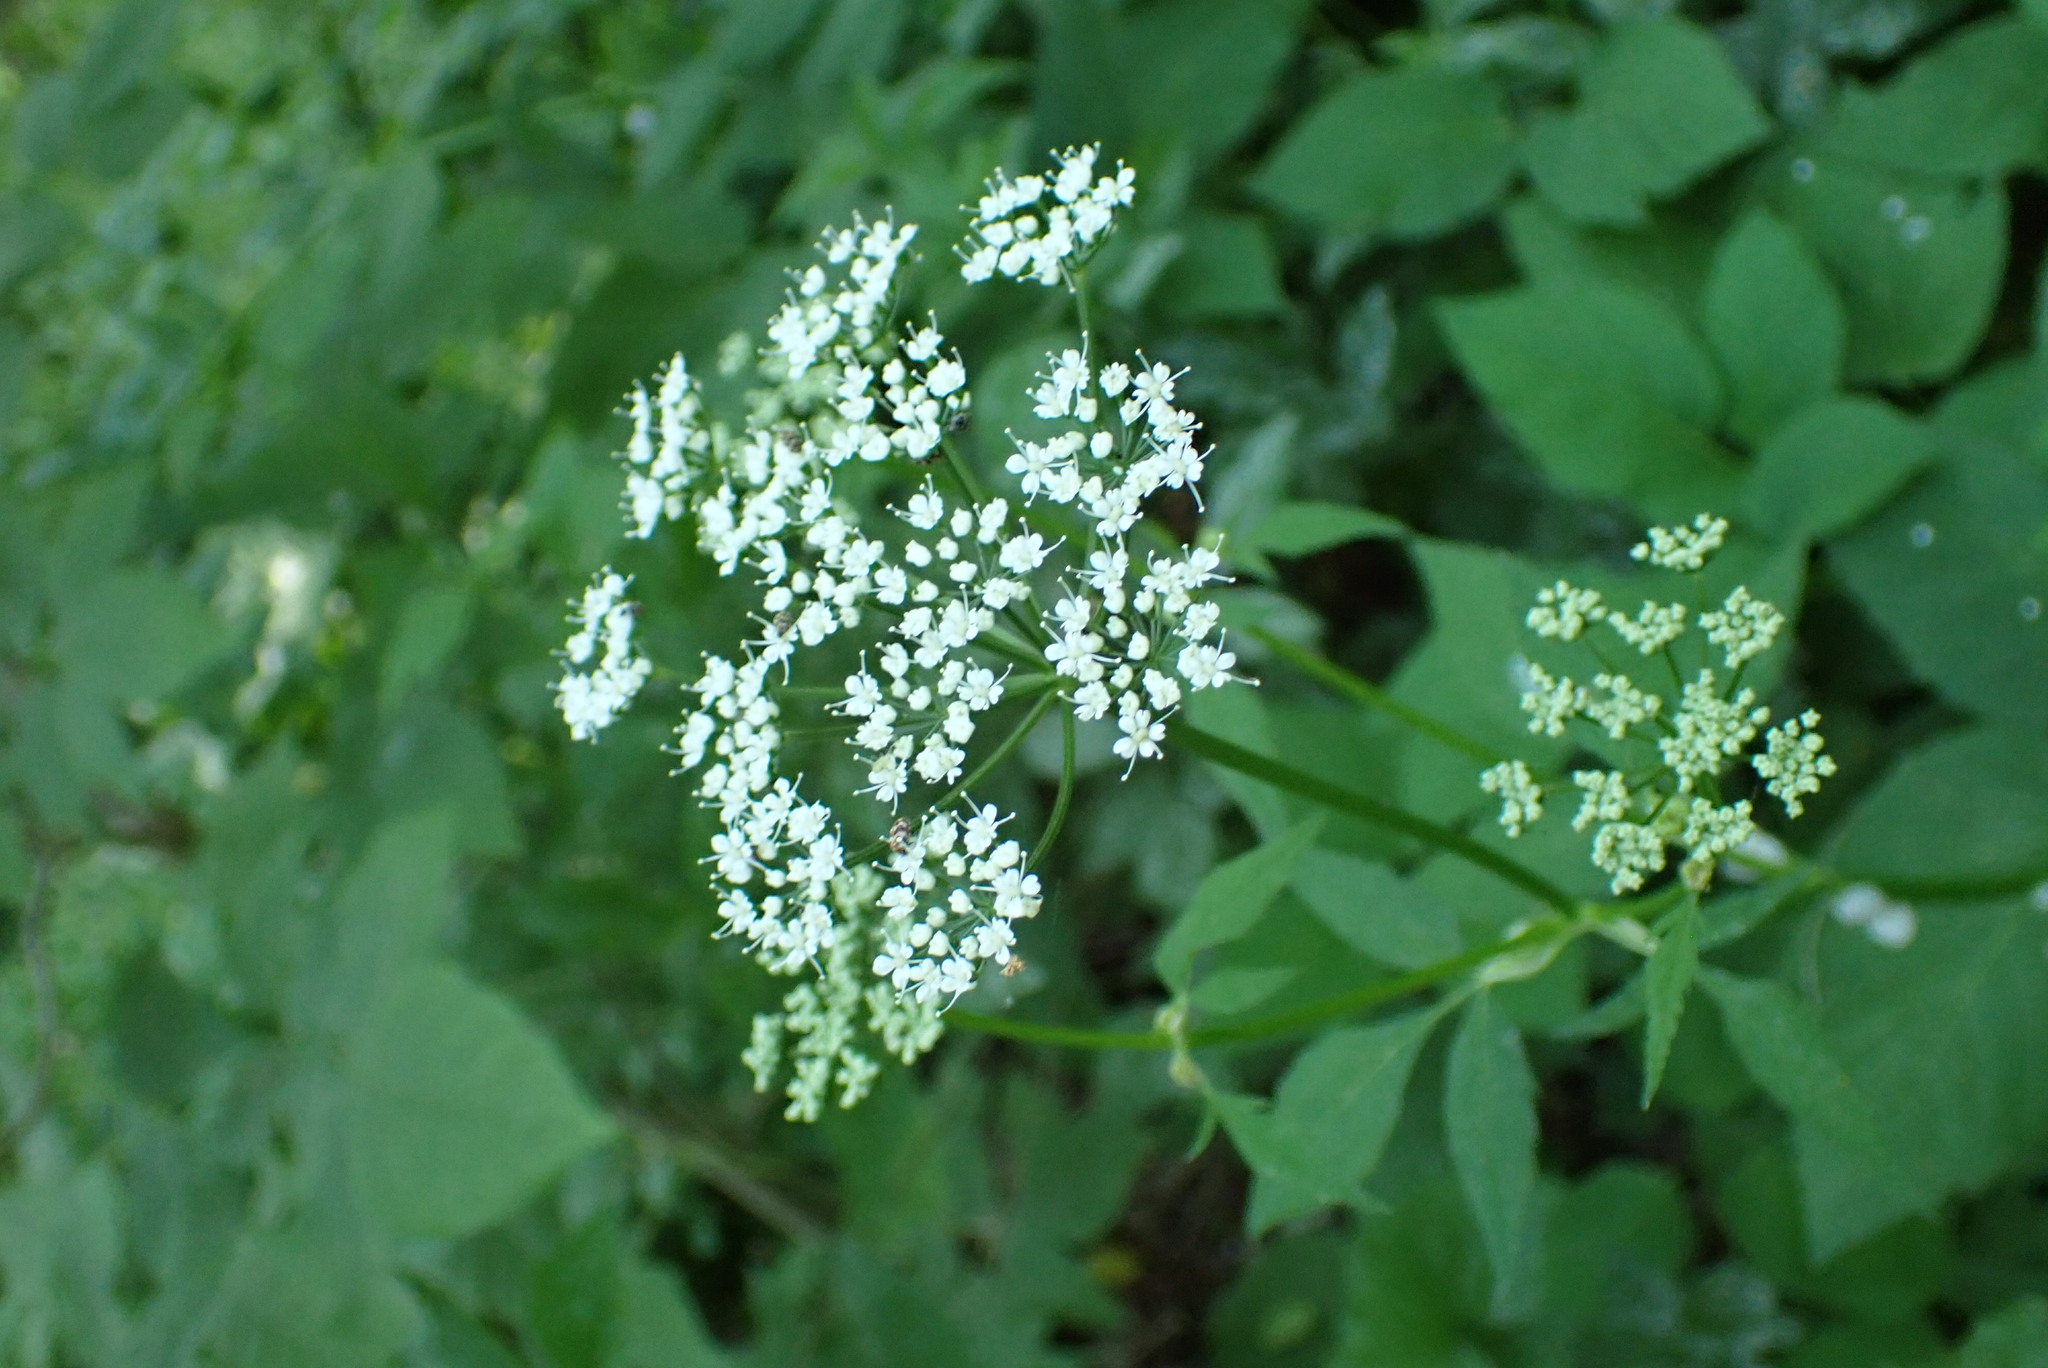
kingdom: Plantae
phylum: Tracheophyta
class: Magnoliopsida
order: Apiales
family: Apiaceae
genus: Aegopodium
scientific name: Aegopodium podagraria
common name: Ground-elder
